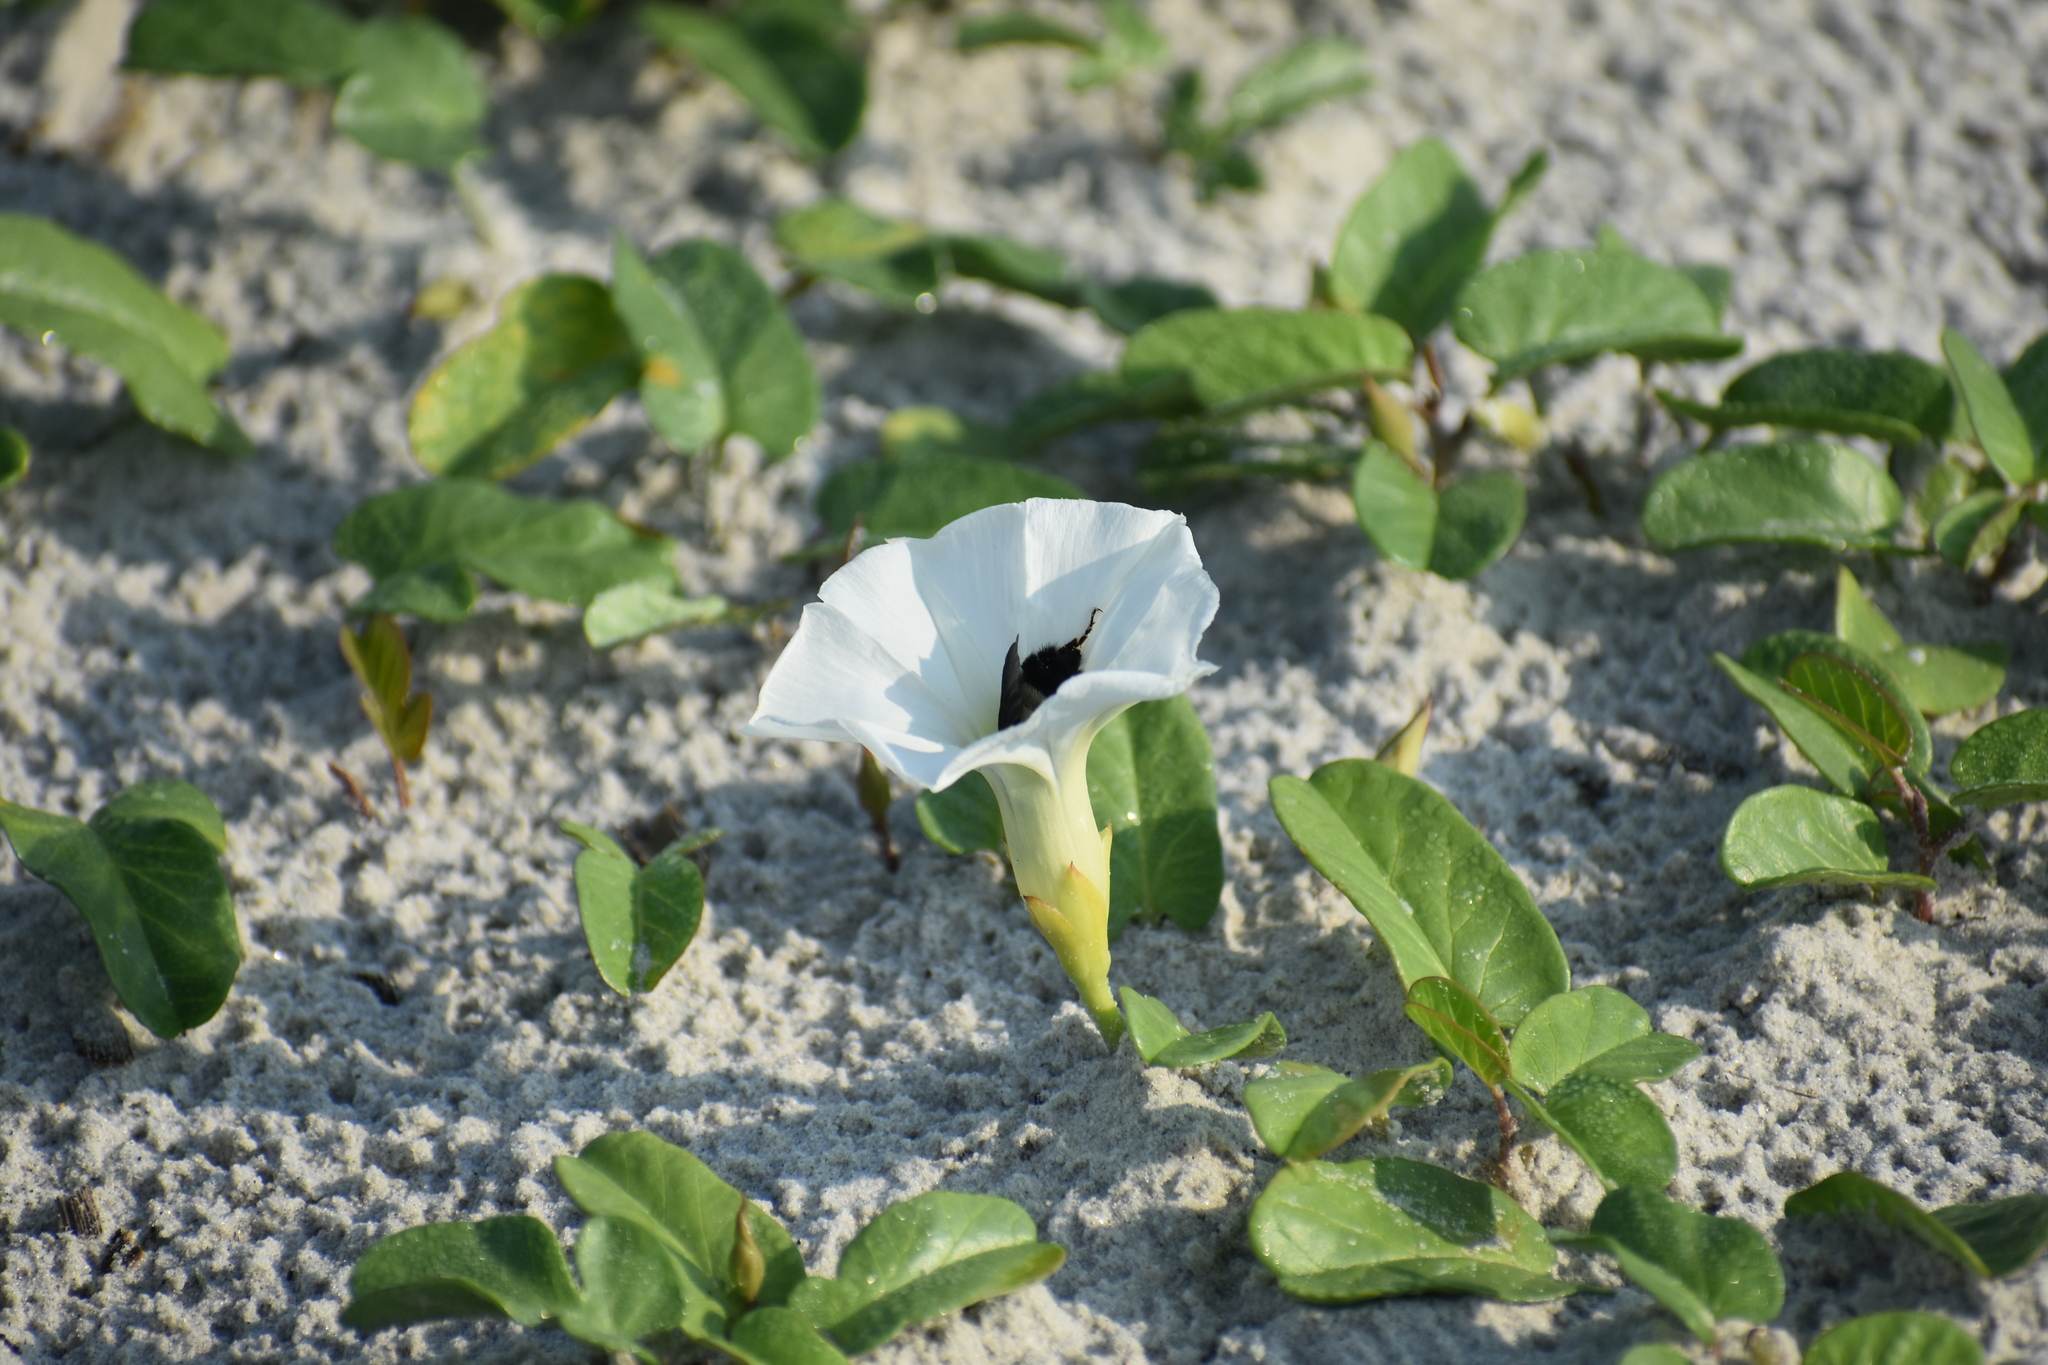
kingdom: Animalia
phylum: Arthropoda
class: Insecta
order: Hymenoptera
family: Apidae
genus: Bombus
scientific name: Bombus pensylvanicus
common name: Bumble bee
